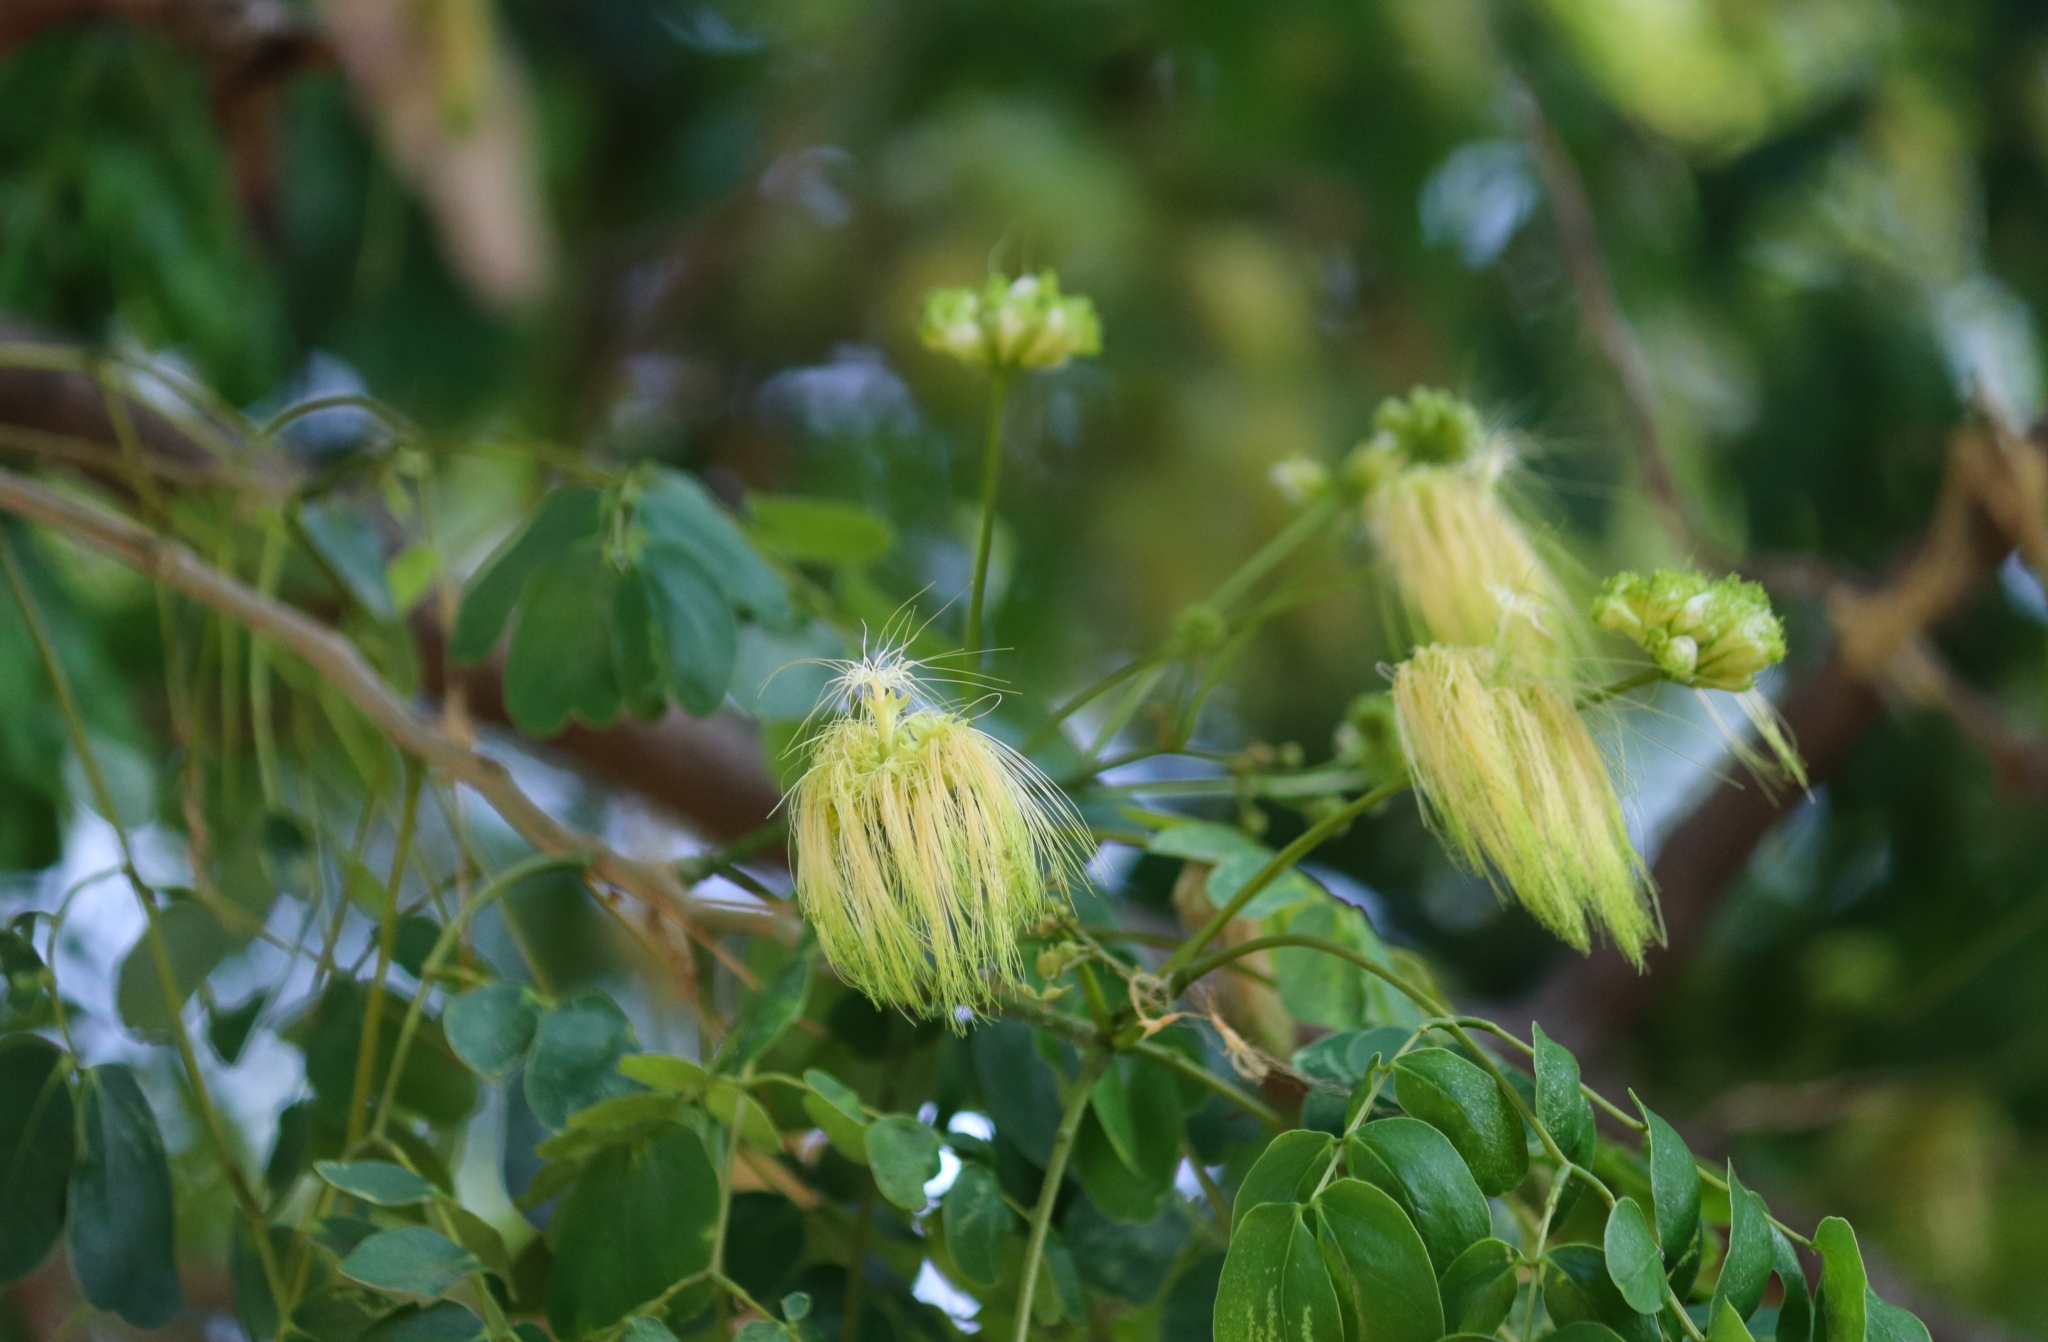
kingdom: Plantae
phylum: Tracheophyta
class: Magnoliopsida
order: Fabales
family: Fabaceae
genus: Albizia
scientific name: Albizia lebbeck
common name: Woman's tongue
